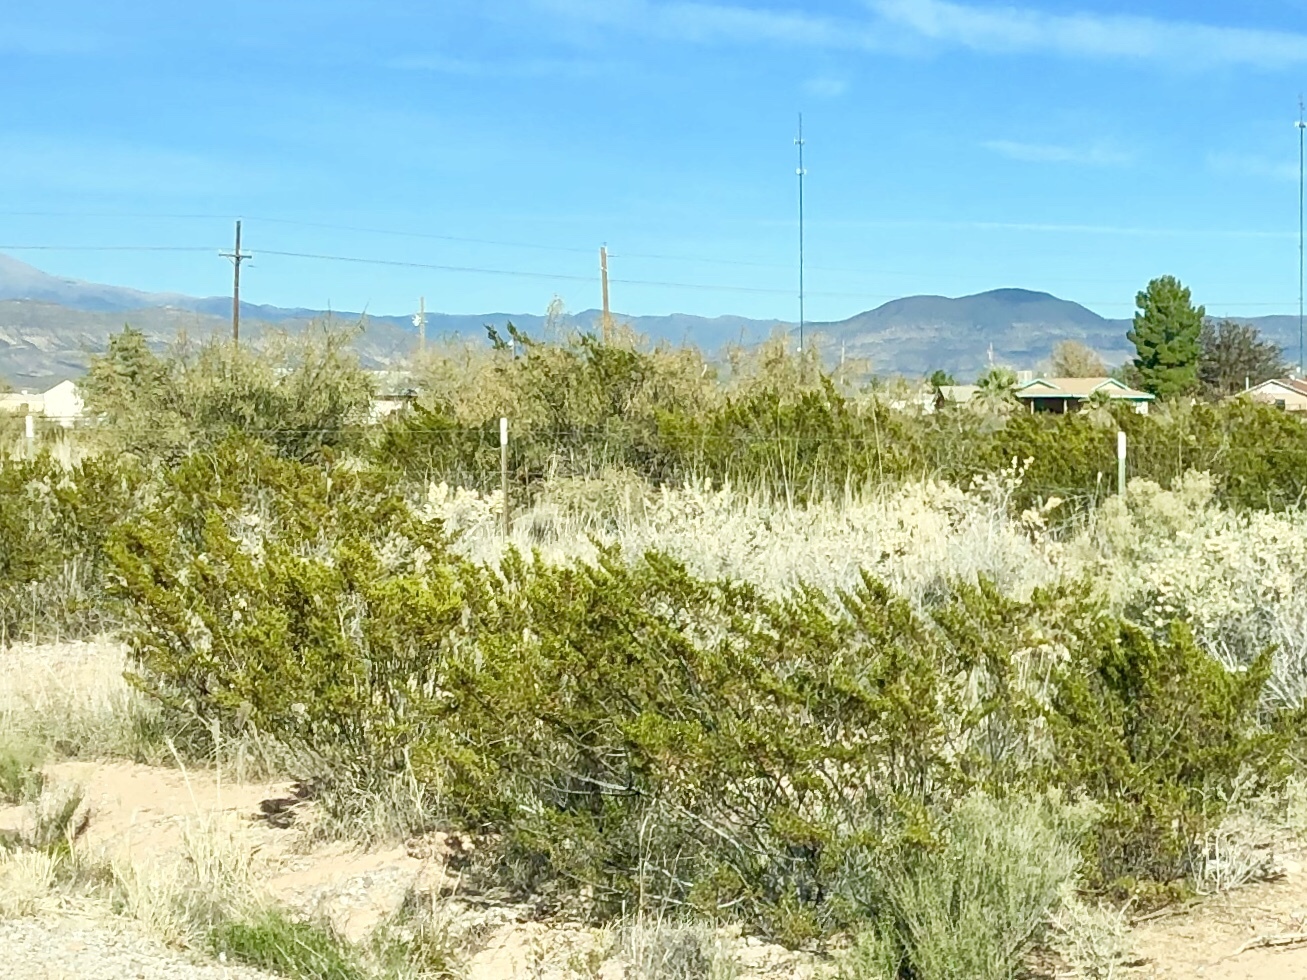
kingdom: Plantae
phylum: Tracheophyta
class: Magnoliopsida
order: Zygophyllales
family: Zygophyllaceae
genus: Larrea
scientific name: Larrea tridentata
